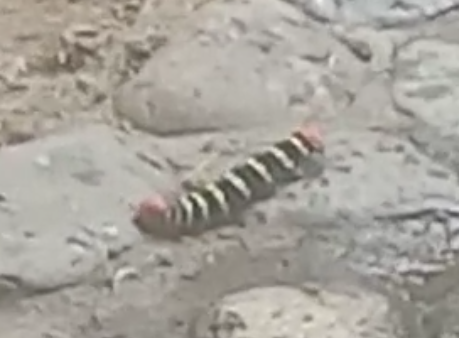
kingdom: Animalia
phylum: Arthropoda
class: Insecta
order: Lepidoptera
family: Sphingidae
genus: Pseudosphinx
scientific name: Pseudosphinx tetrio
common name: Tetrio sphinx
